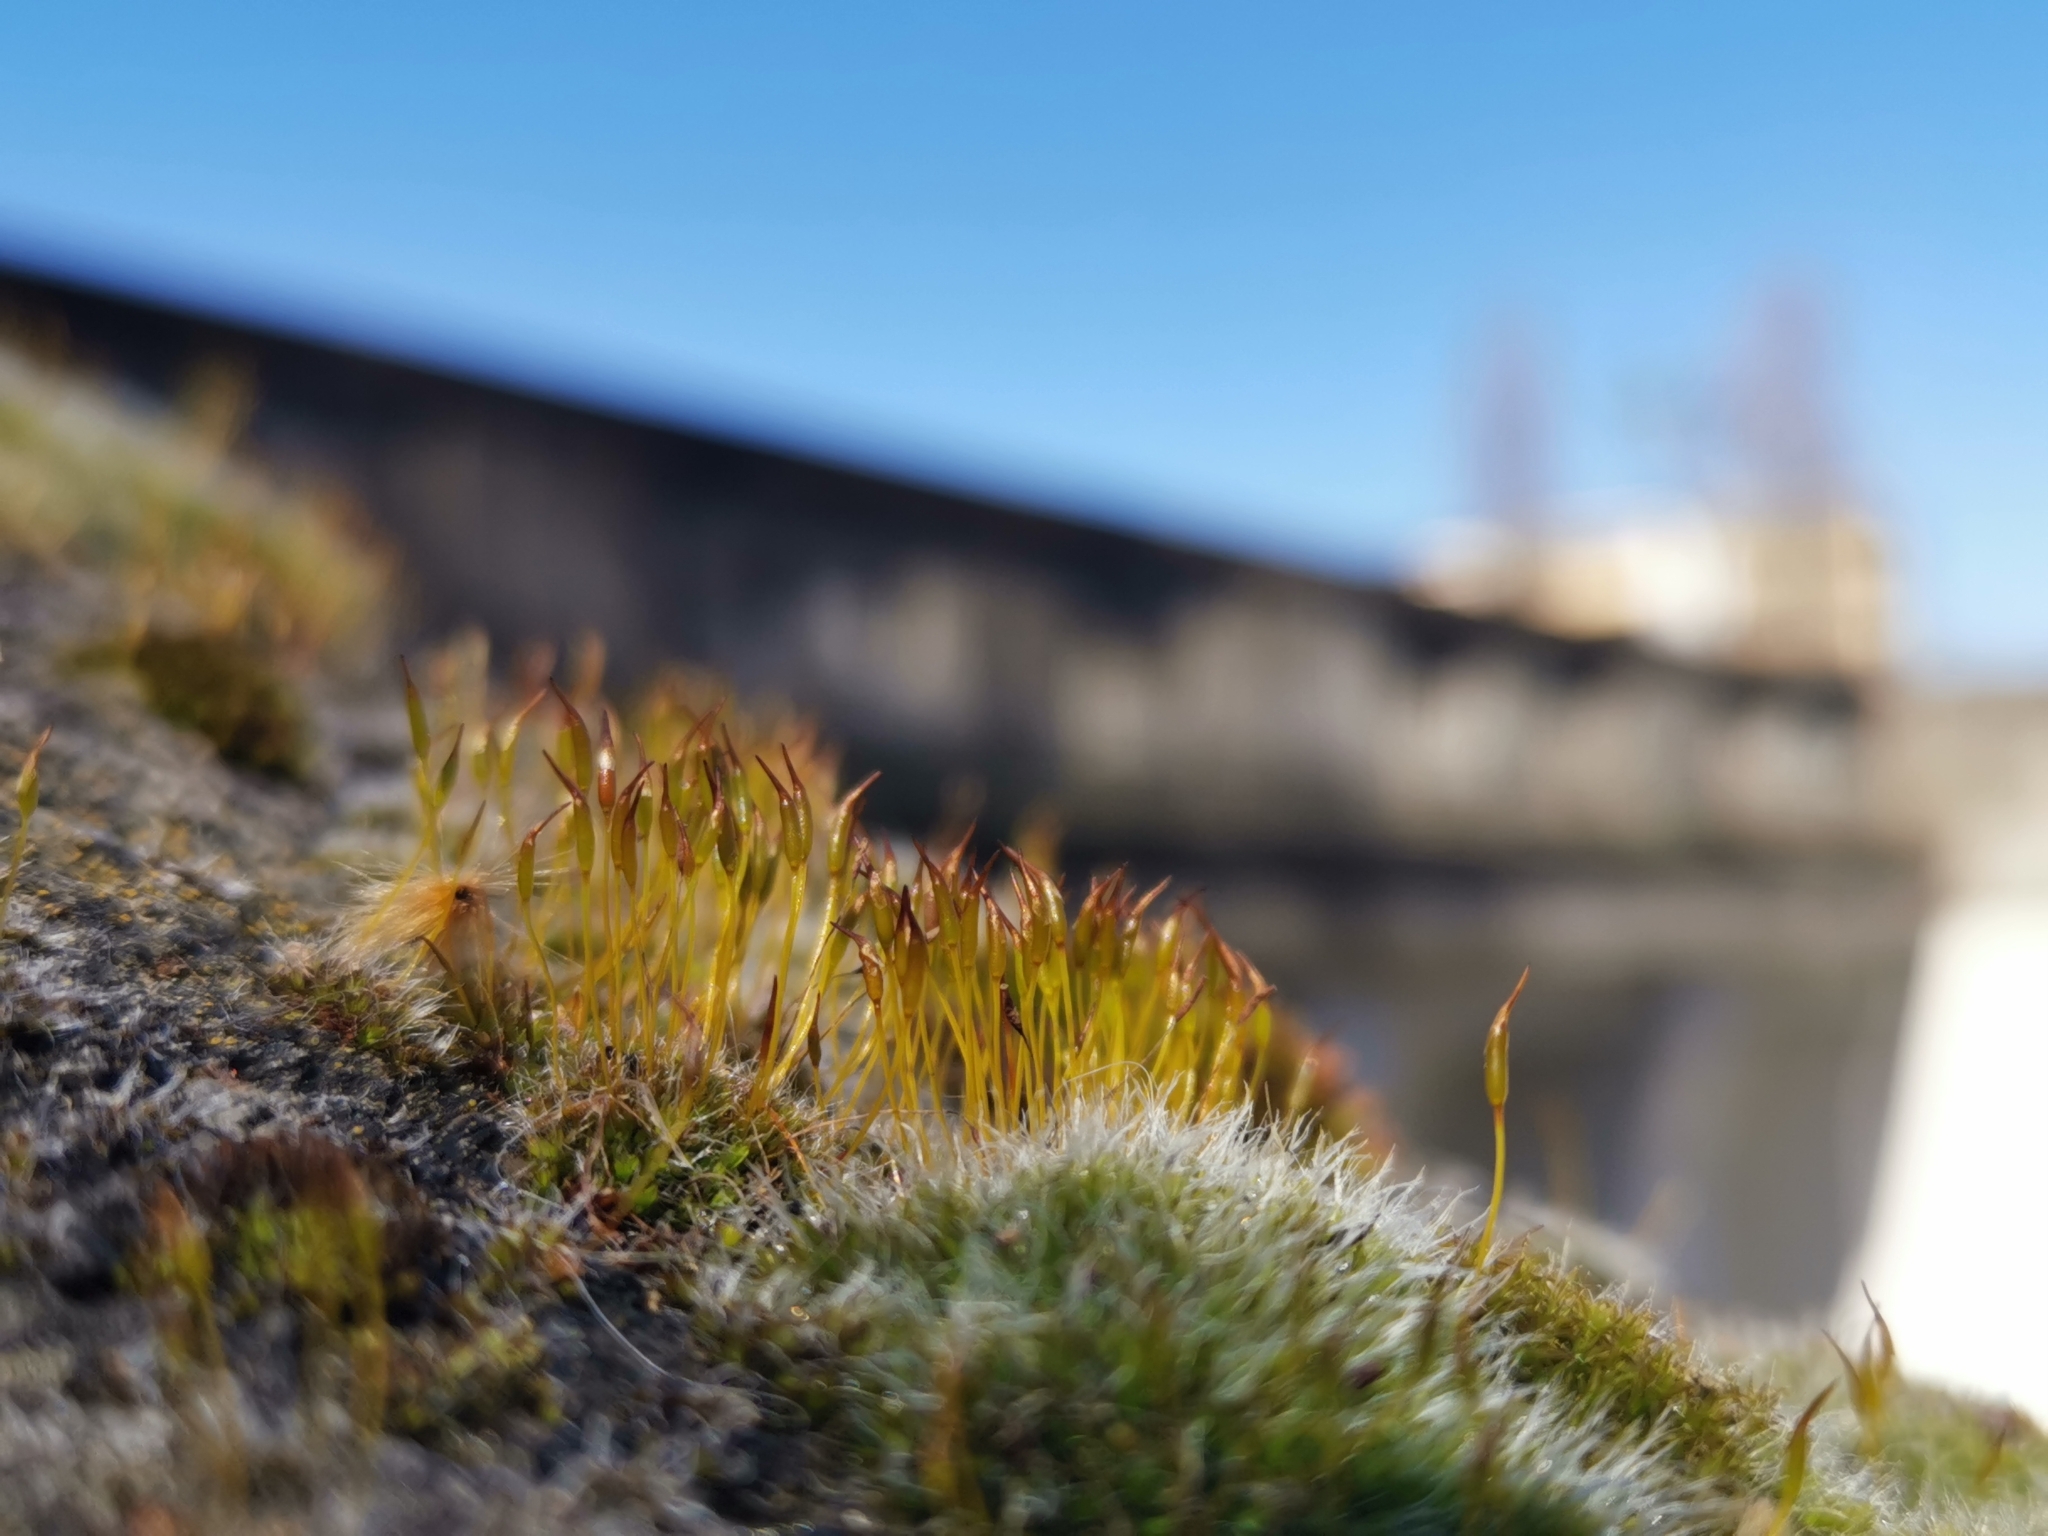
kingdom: Plantae
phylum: Bryophyta
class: Bryopsida
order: Pottiales
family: Pottiaceae
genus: Tortula
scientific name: Tortula muralis
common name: Wall screw-moss
